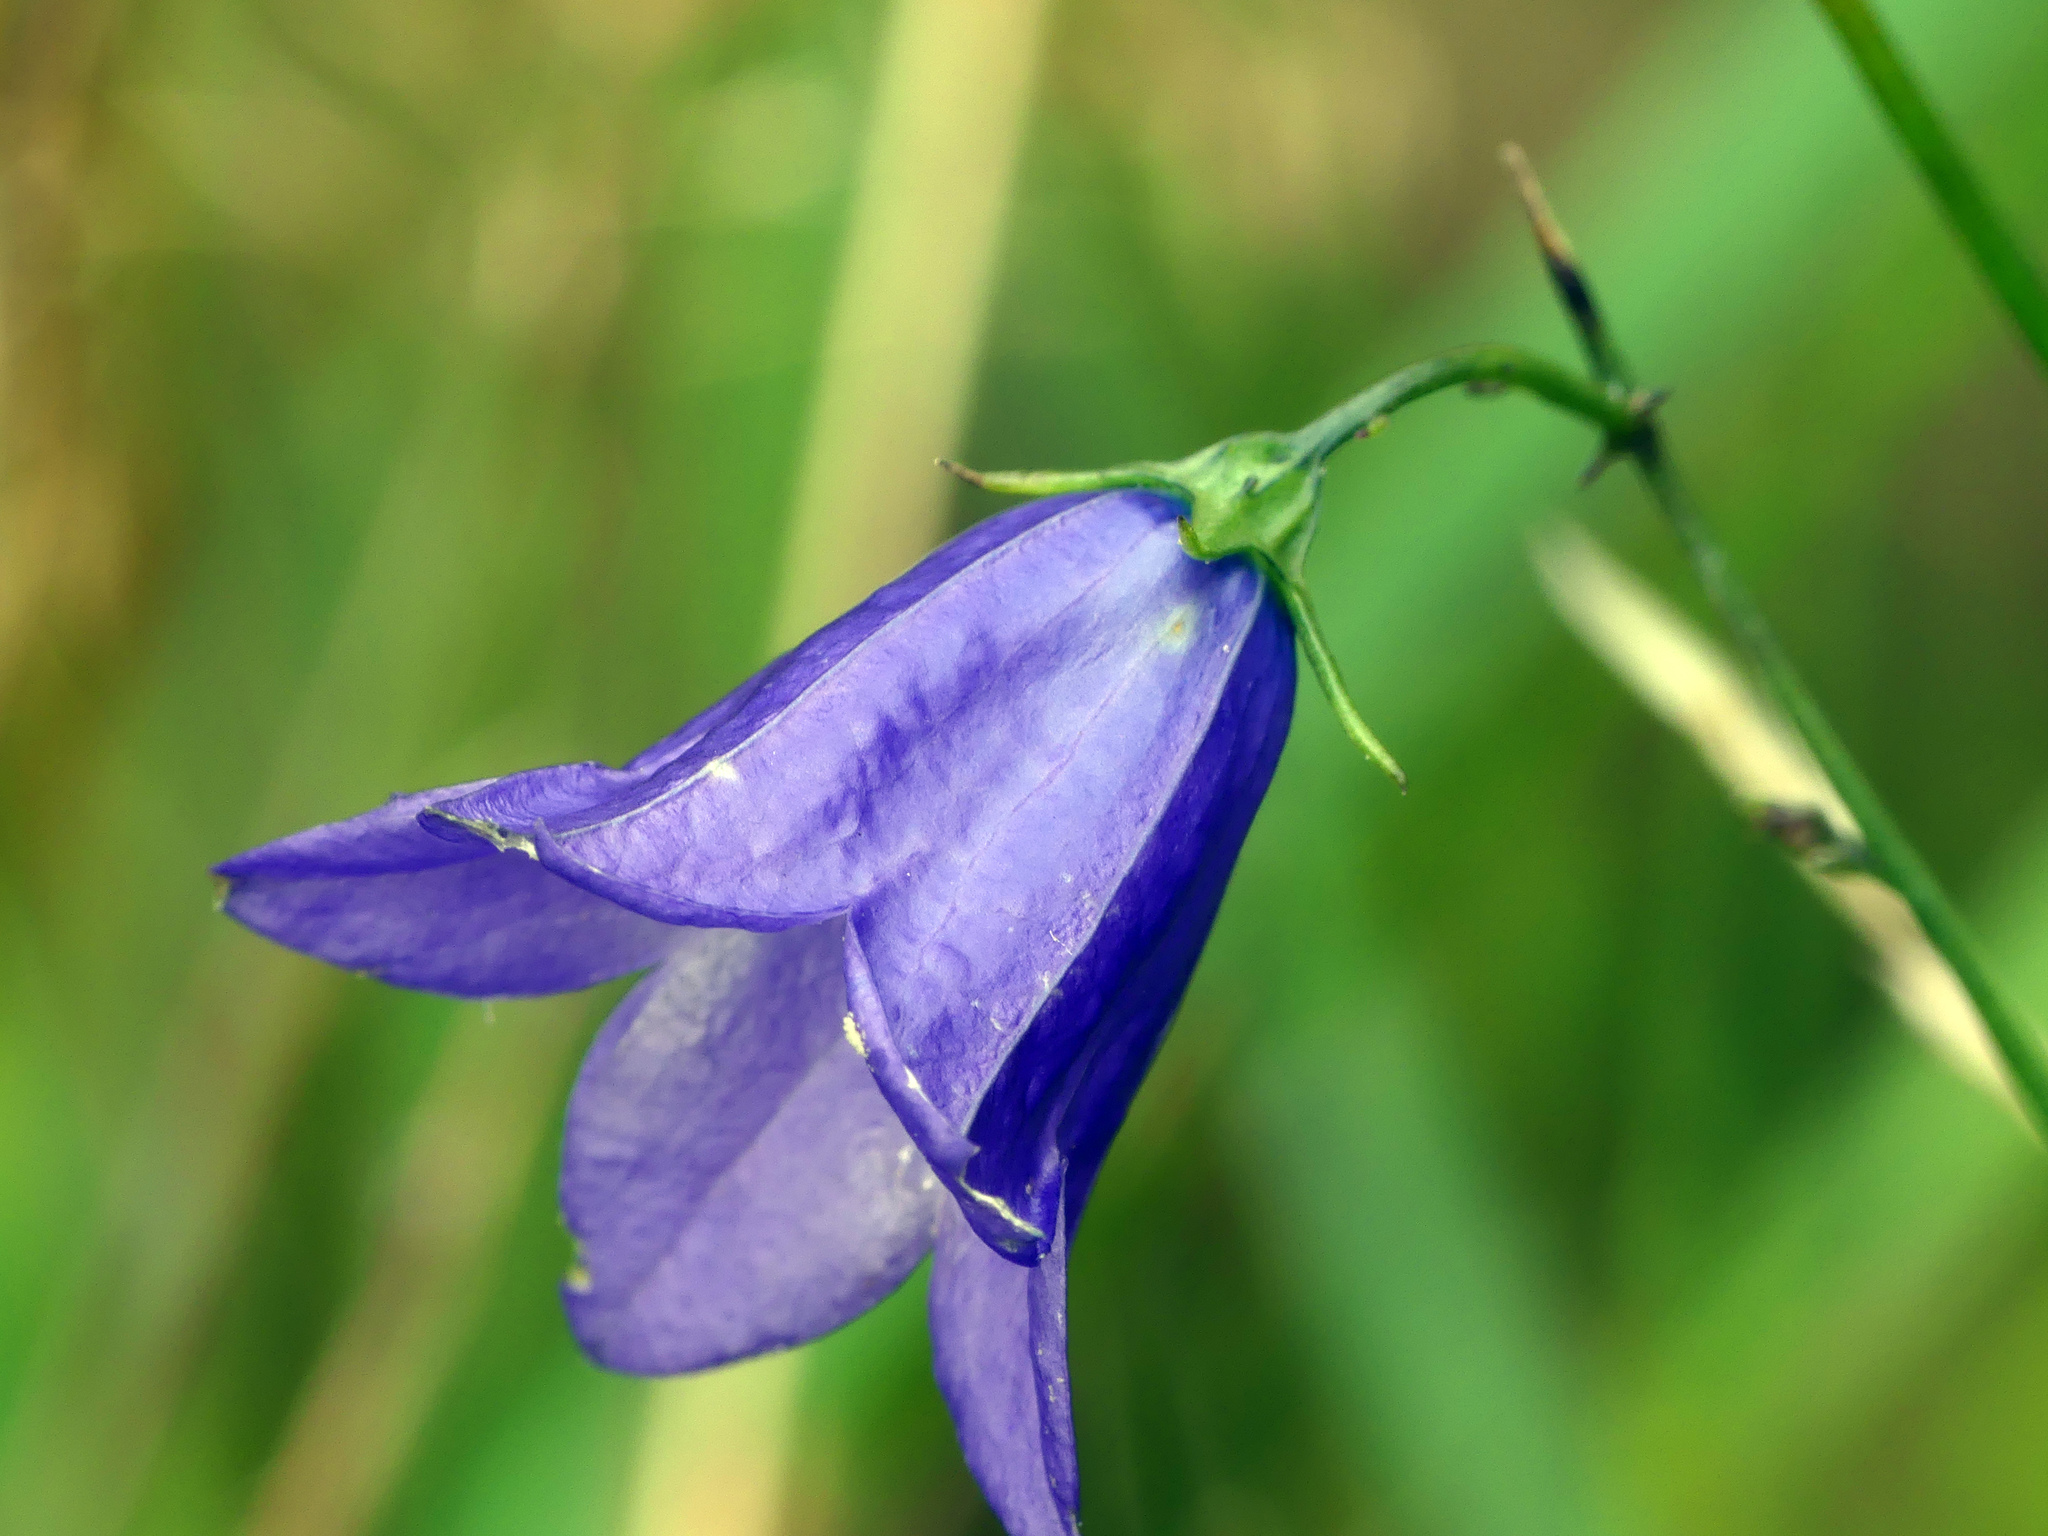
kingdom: Plantae
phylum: Tracheophyta
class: Magnoliopsida
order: Asterales
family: Campanulaceae
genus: Campanula
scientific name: Campanula rotundifolia
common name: Harebell
